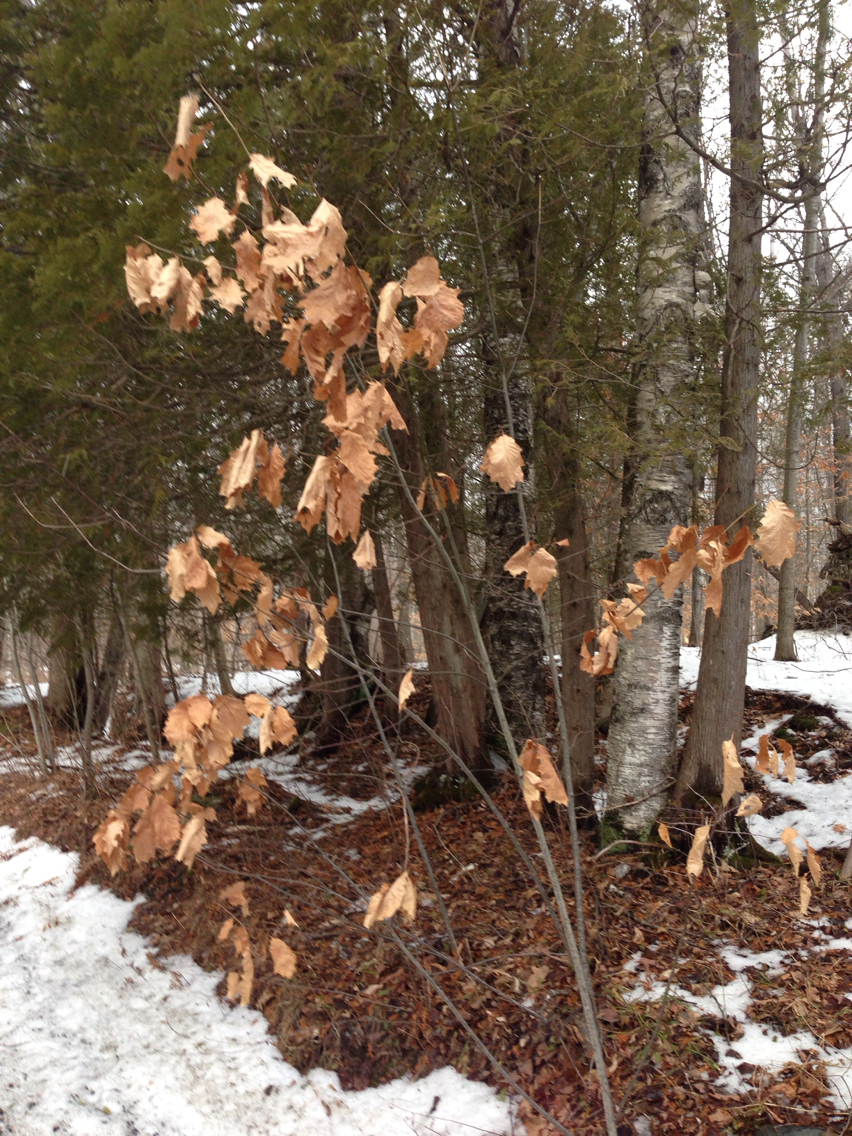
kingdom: Plantae
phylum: Tracheophyta
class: Magnoliopsida
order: Fagales
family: Fagaceae
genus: Quercus
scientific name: Quercus rubra
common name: Red oak
